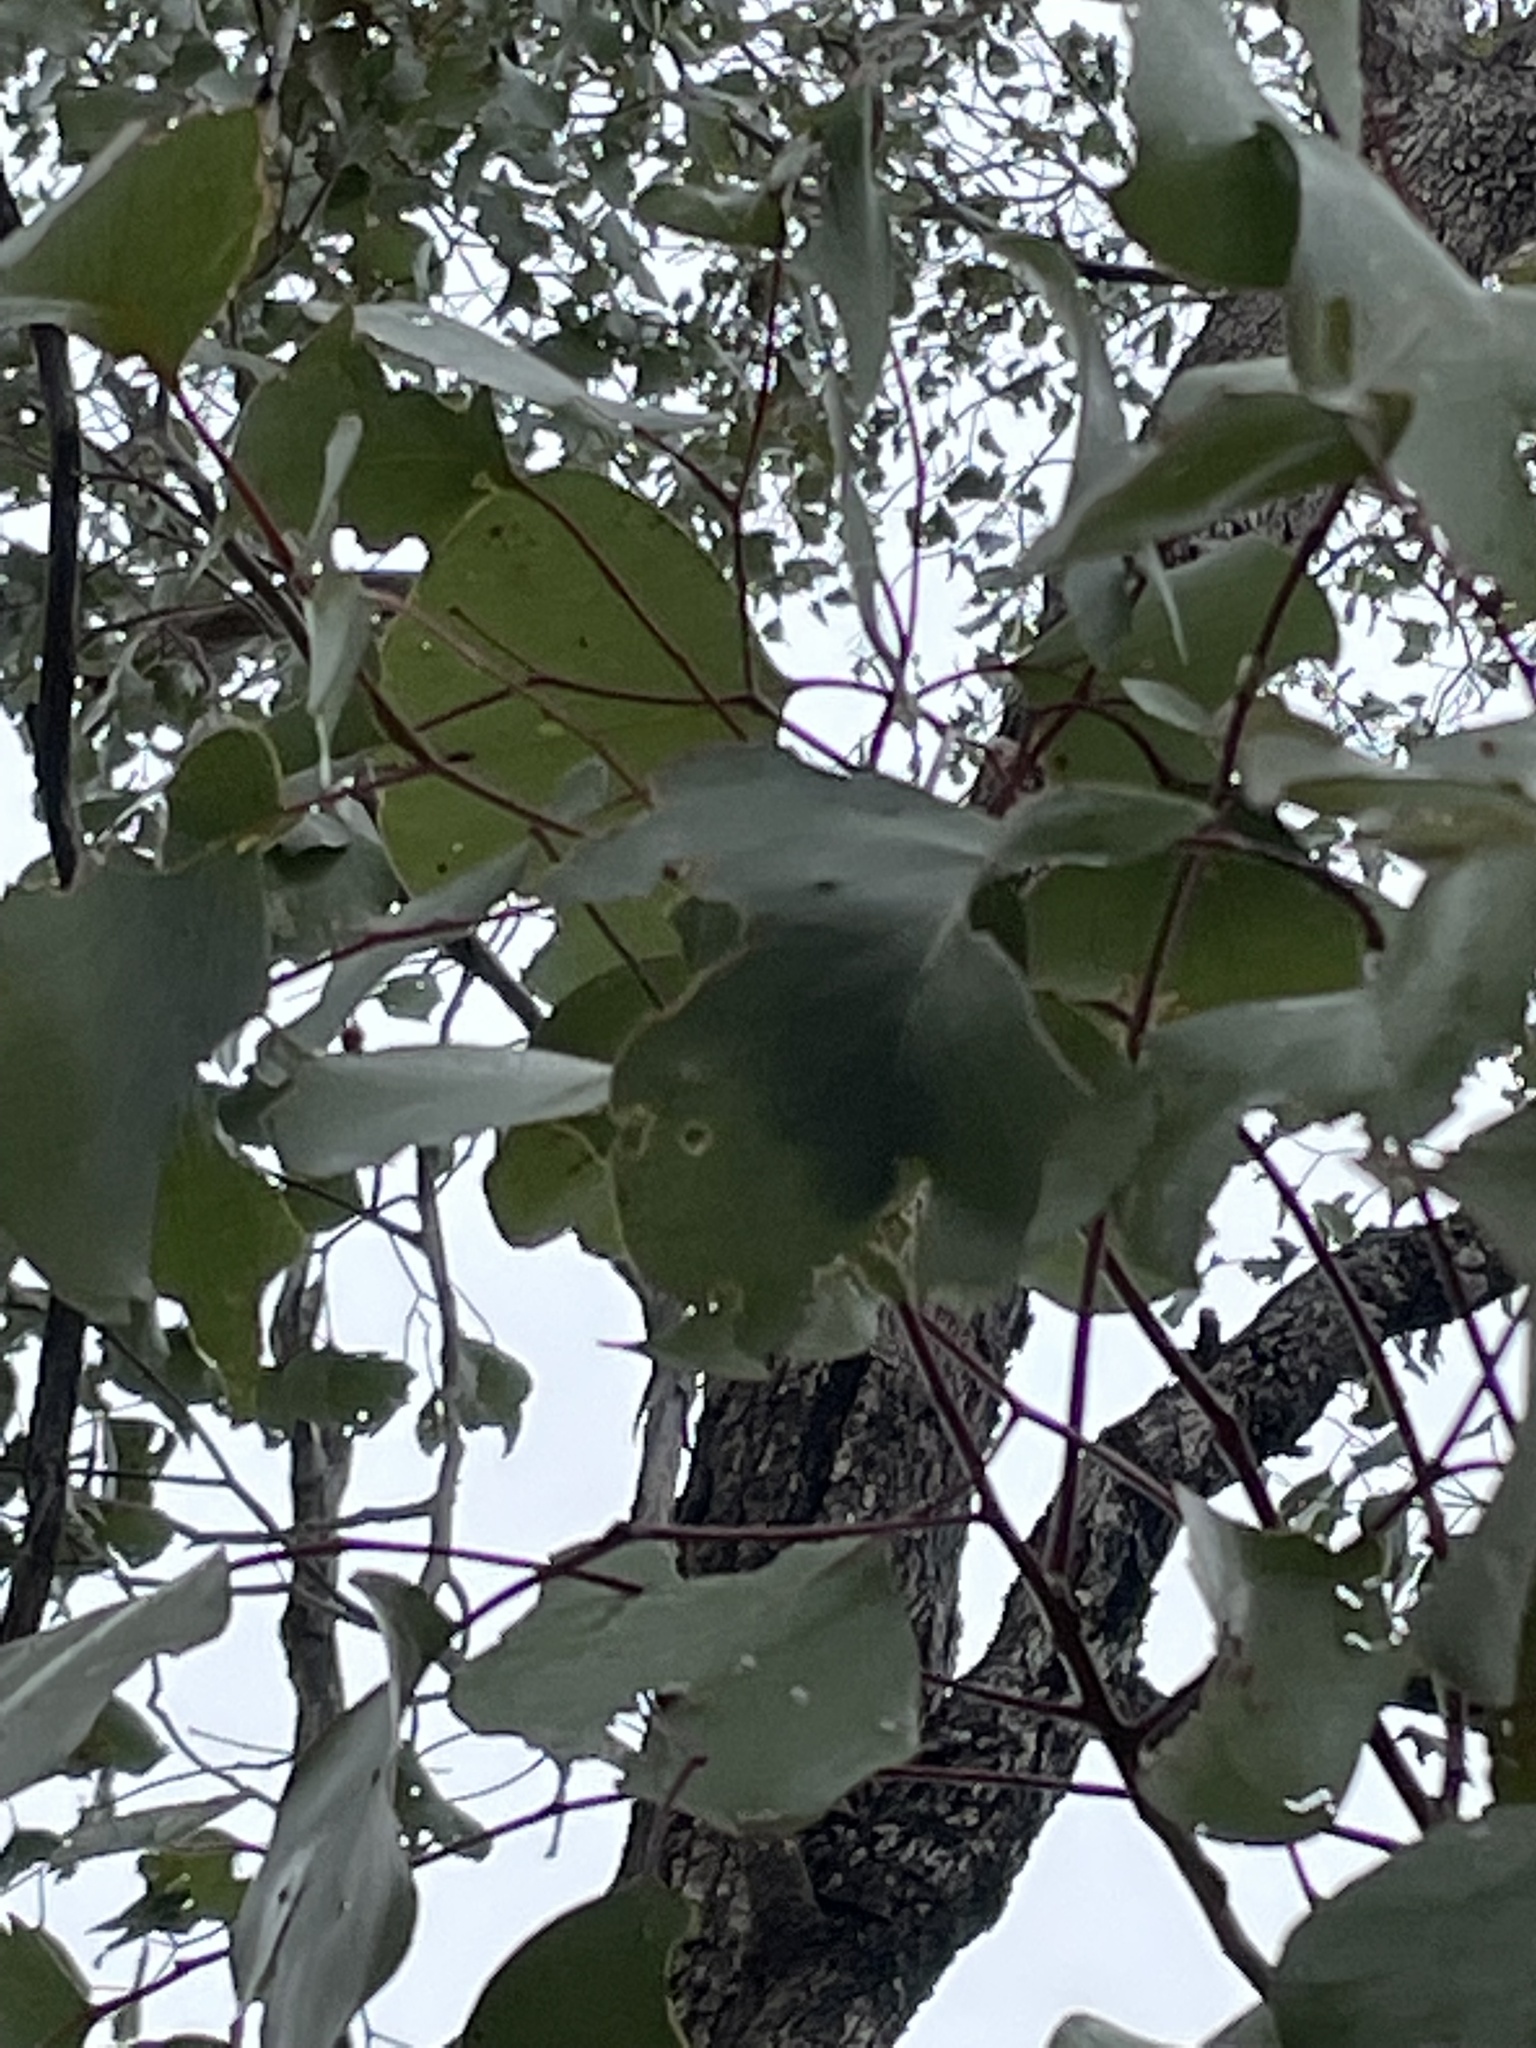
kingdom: Plantae
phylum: Tracheophyta
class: Magnoliopsida
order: Myrtales
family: Myrtaceae
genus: Eucalyptus
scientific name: Eucalyptus populnea
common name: Bimble box
